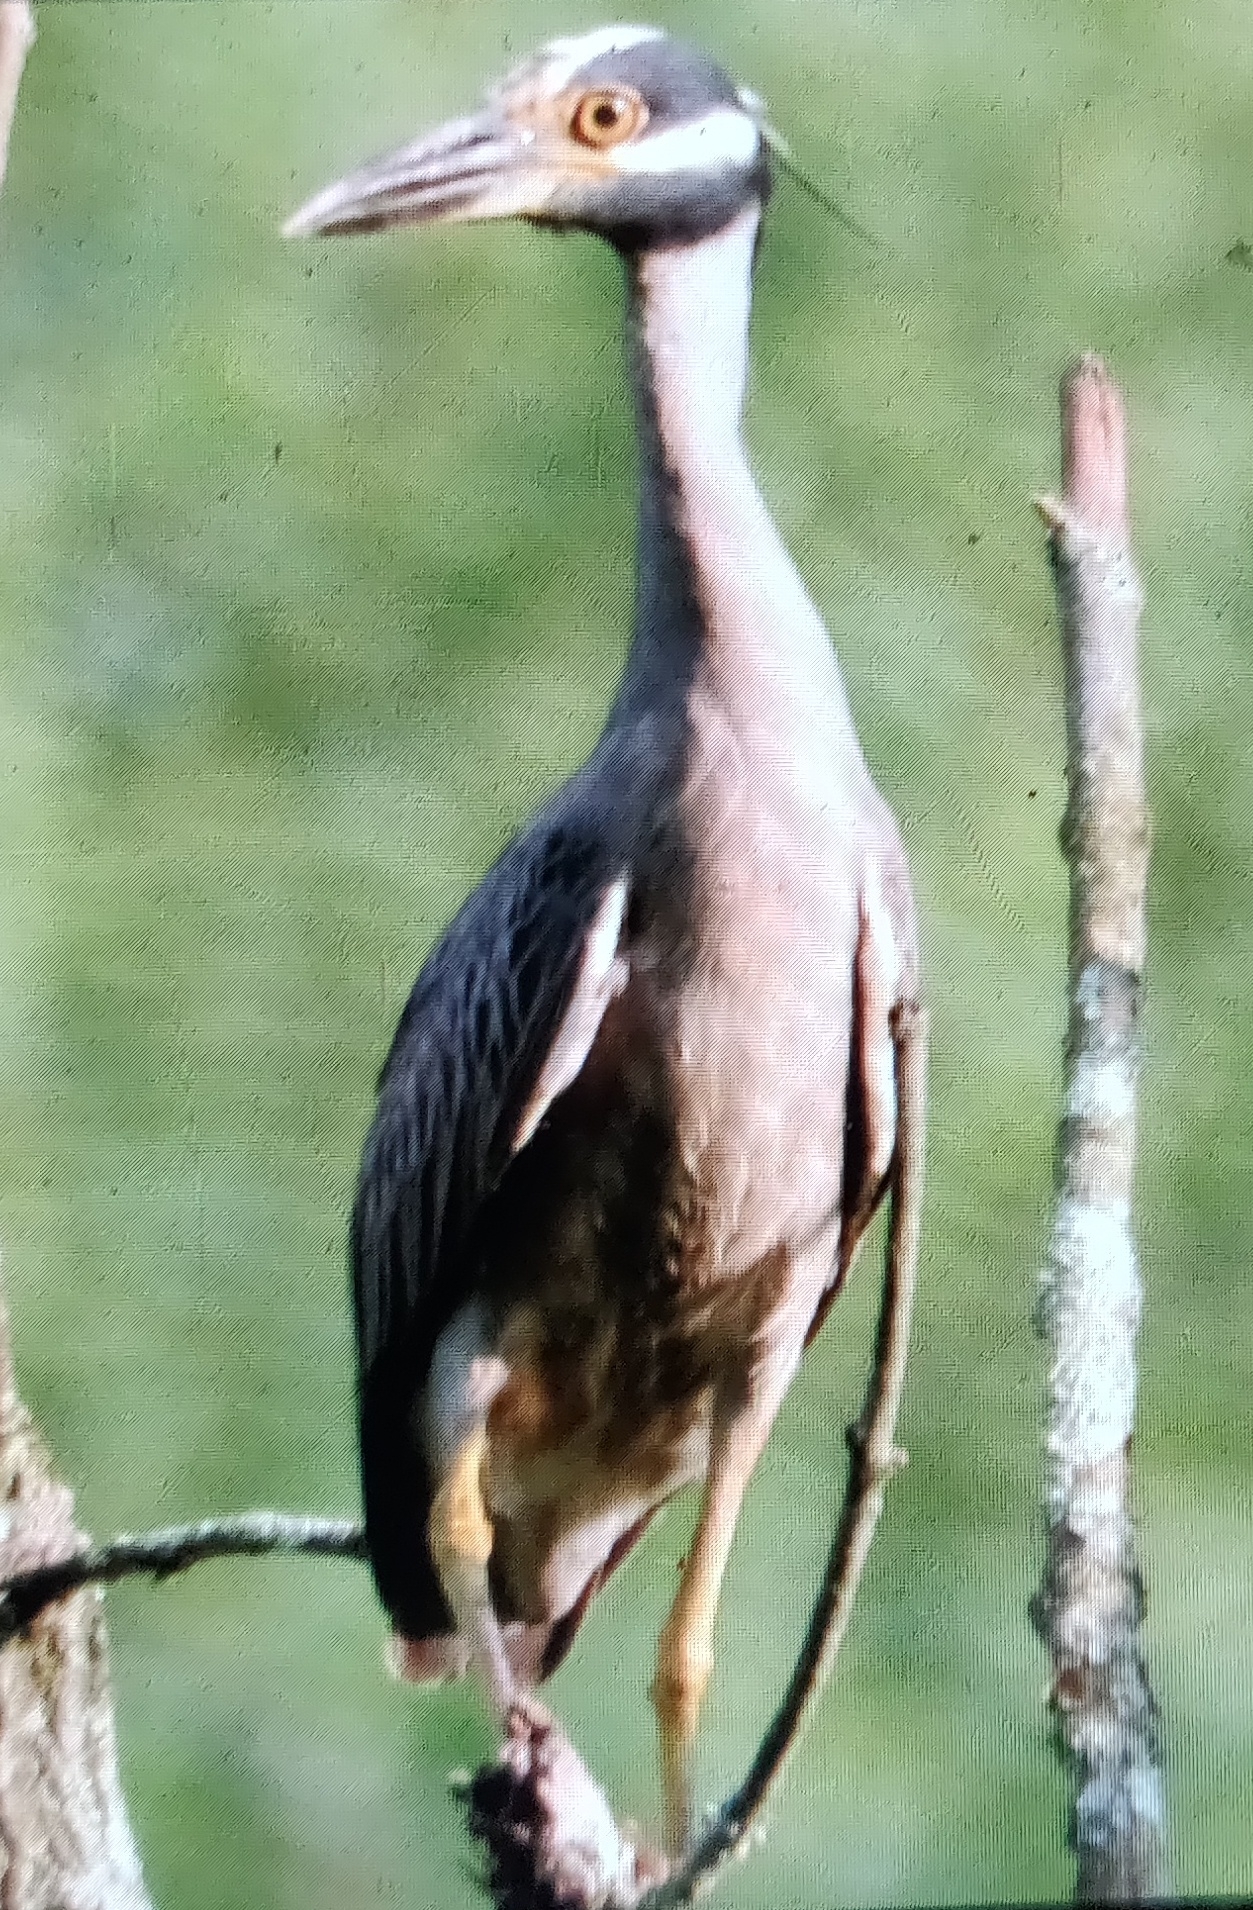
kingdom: Animalia
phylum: Chordata
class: Aves
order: Pelecaniformes
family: Ardeidae
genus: Nyctanassa
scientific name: Nyctanassa violacea
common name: Yellow-crowned night heron
